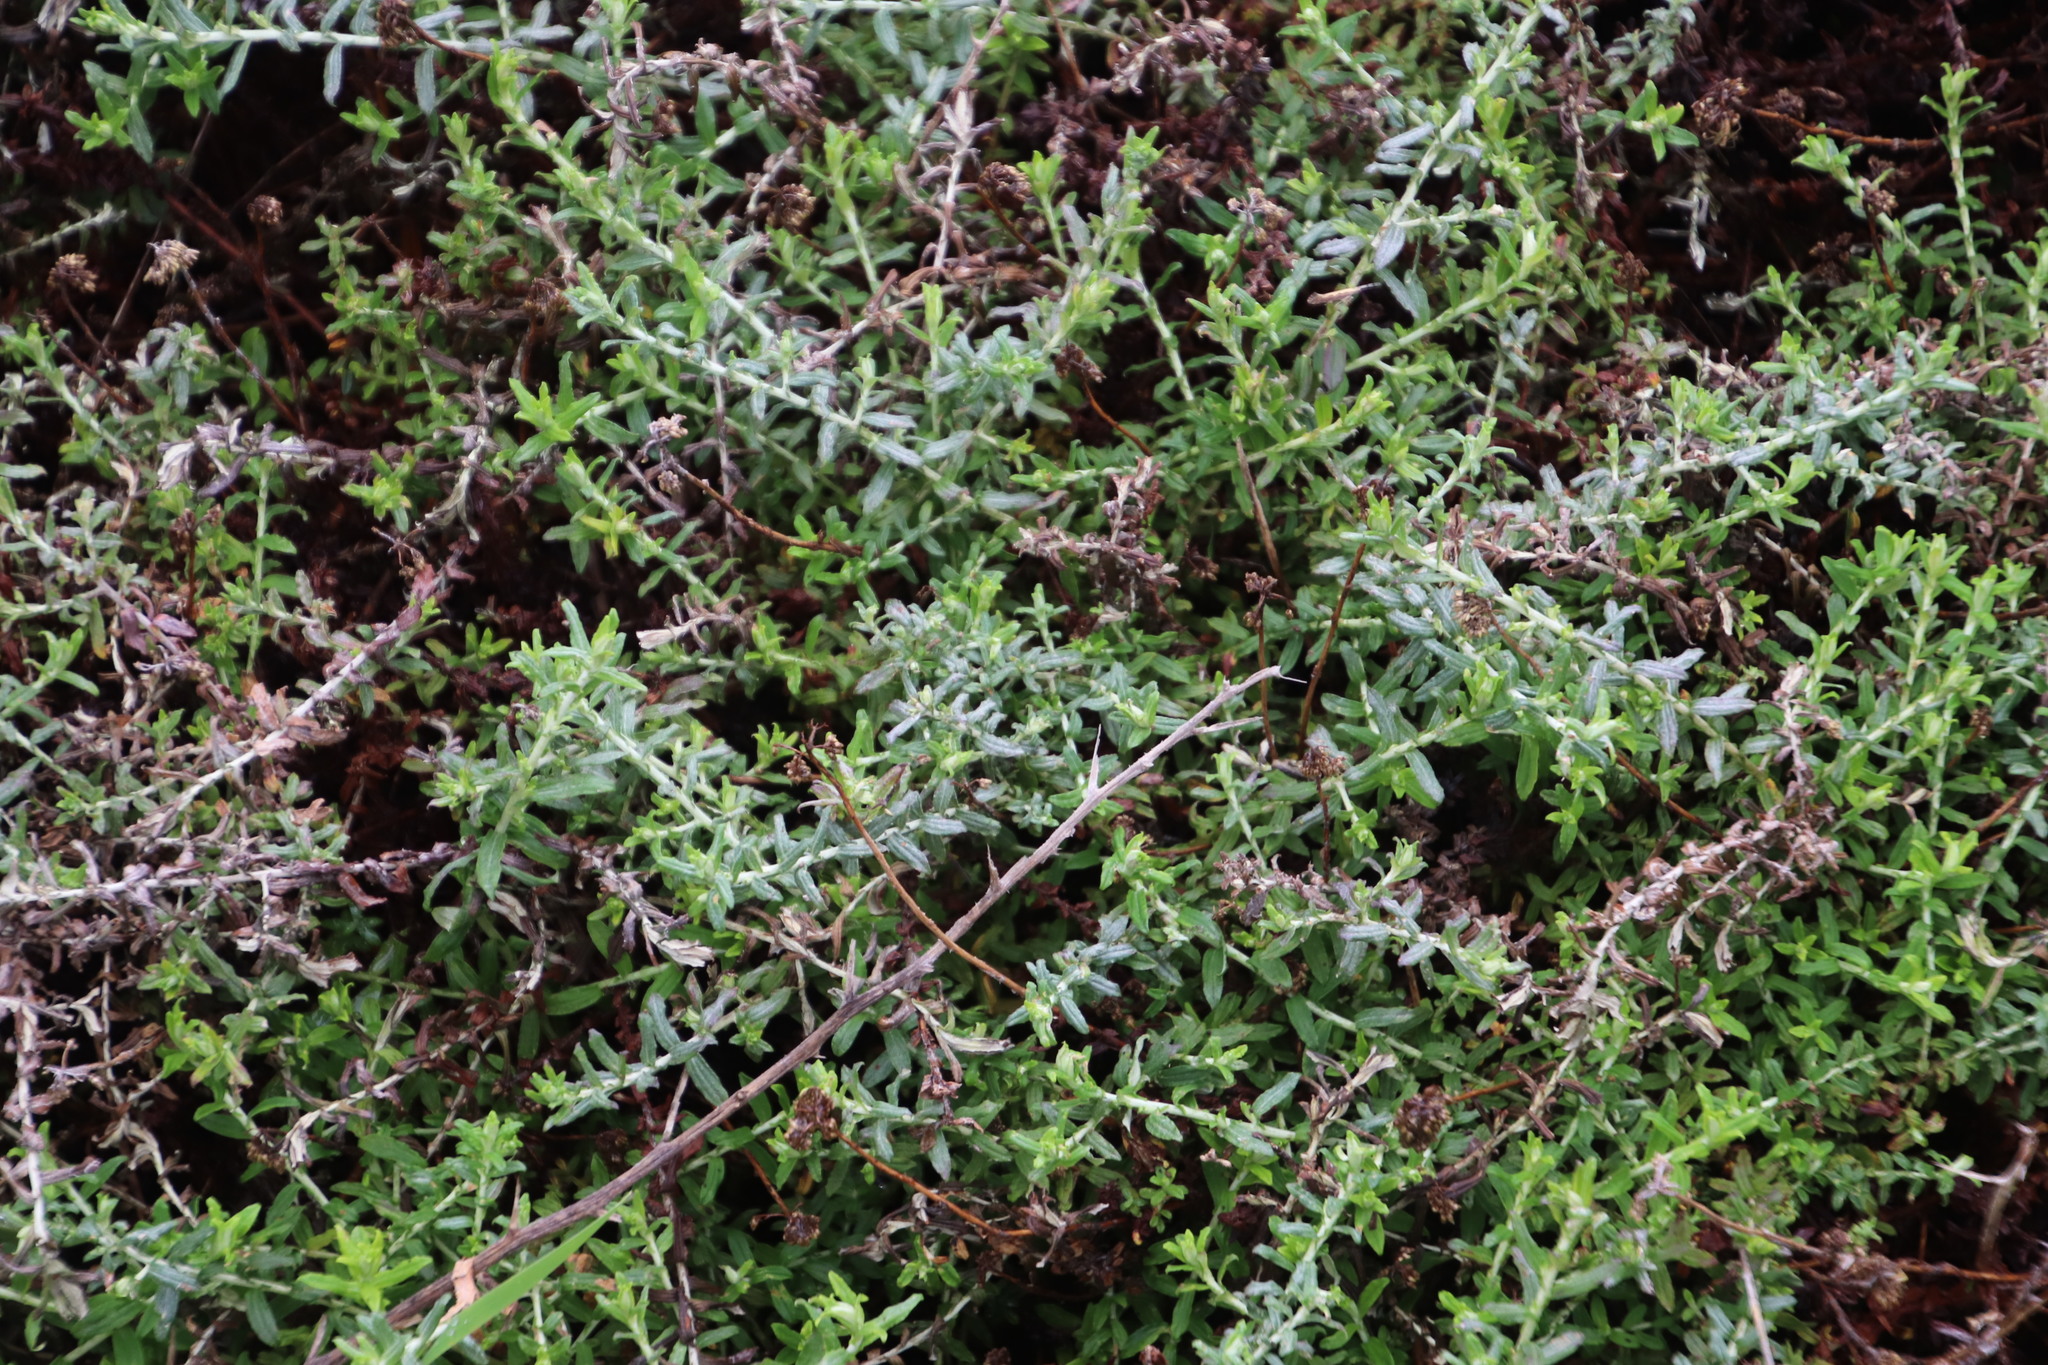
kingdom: Plantae
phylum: Tracheophyta
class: Magnoliopsida
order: Asterales
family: Asteraceae
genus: Helichrysum
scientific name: Helichrysum cymosum
